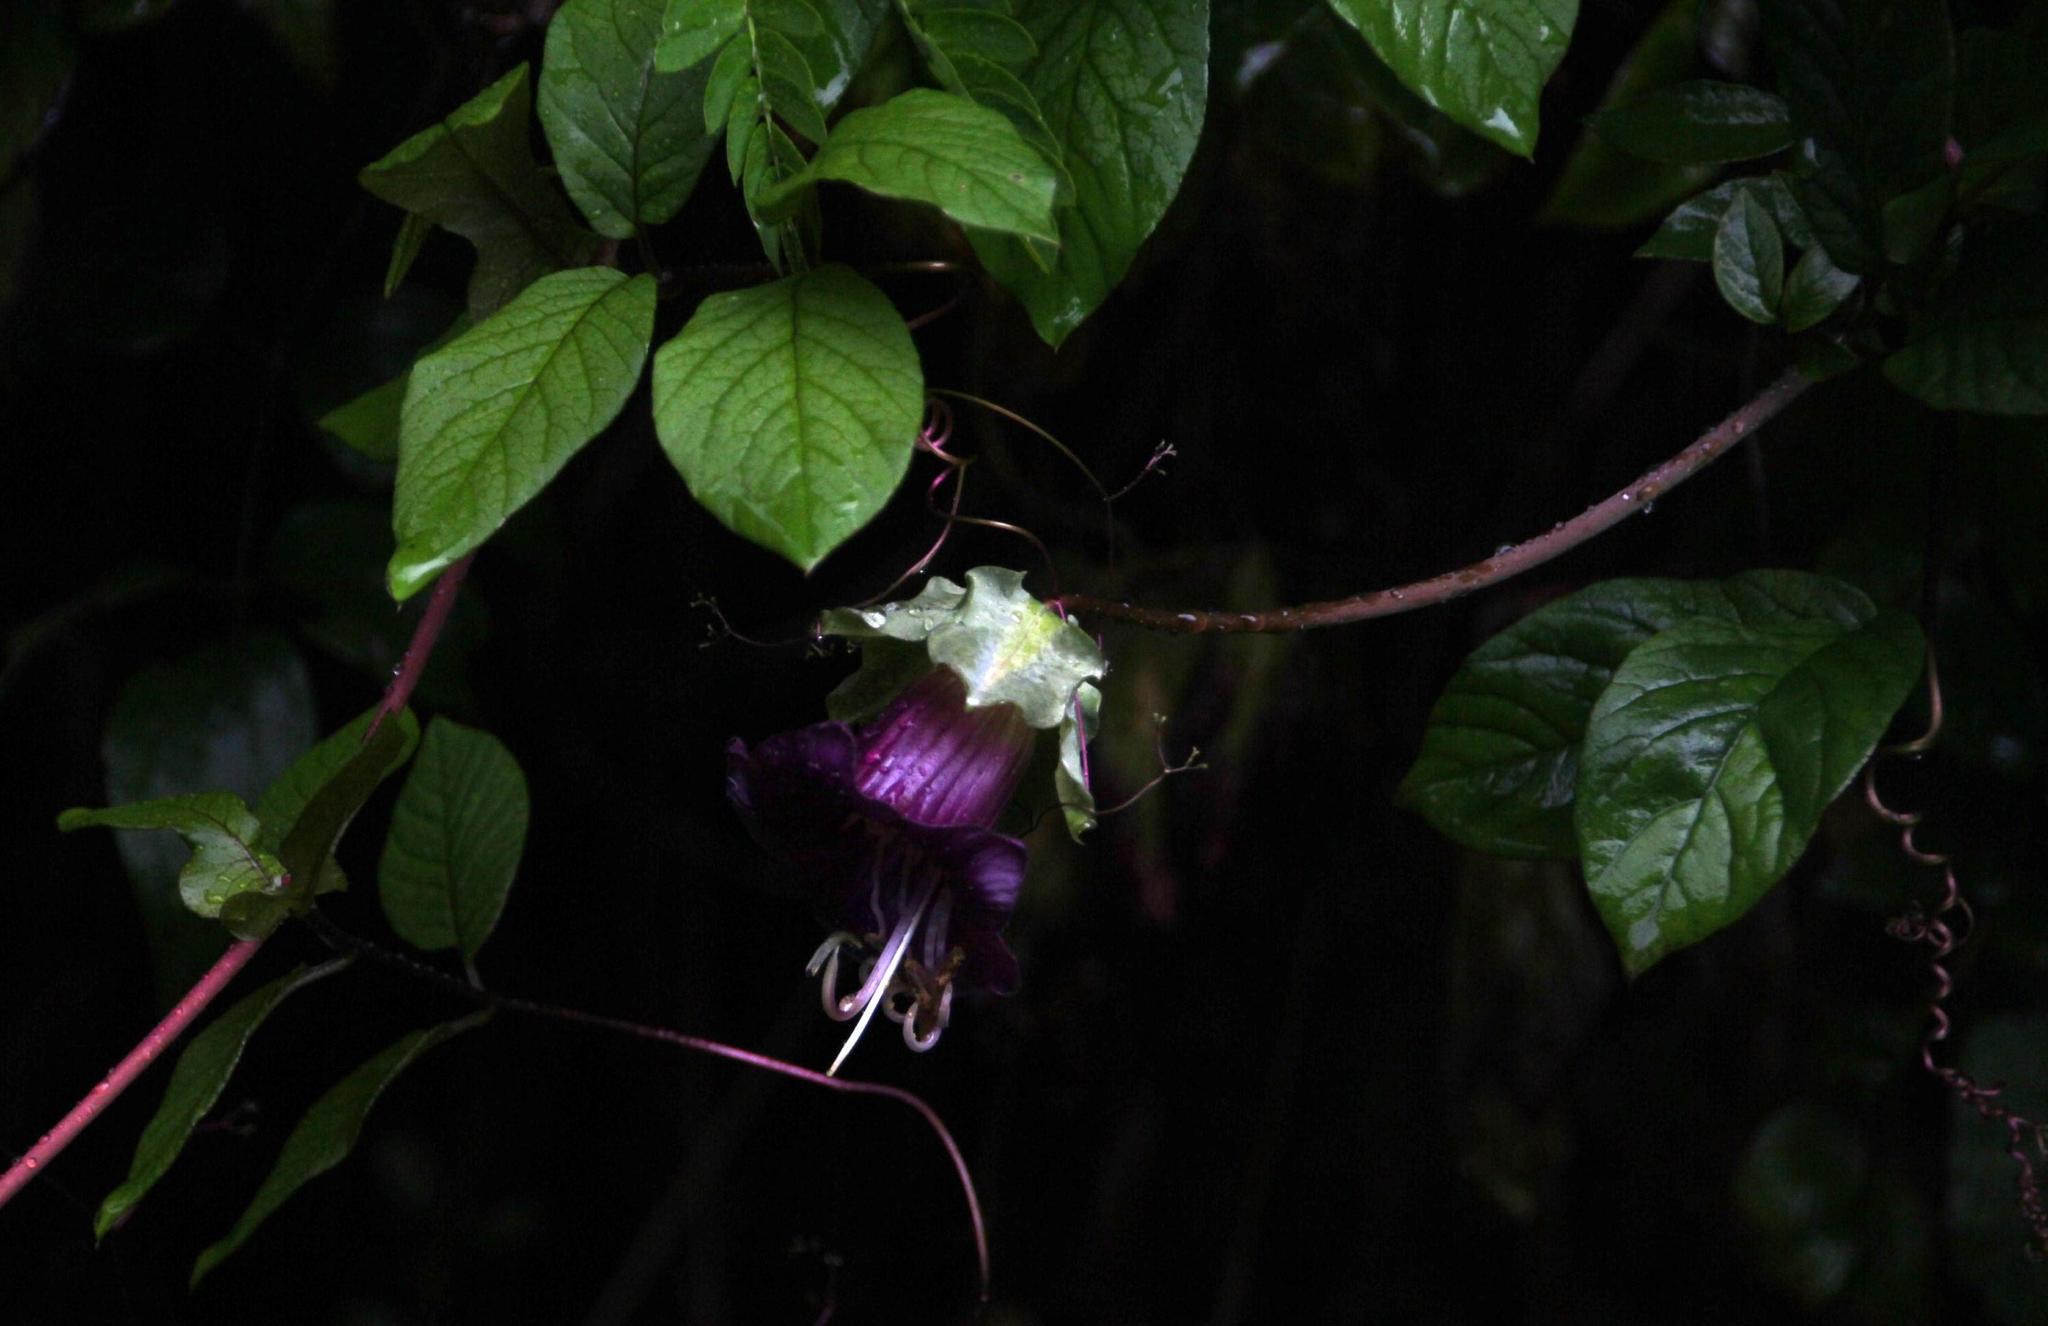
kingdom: Plantae
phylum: Tracheophyta
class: Magnoliopsida
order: Ericales
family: Polemoniaceae
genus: Cobaea
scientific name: Cobaea scandens
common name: Cup-and-saucer-vine
